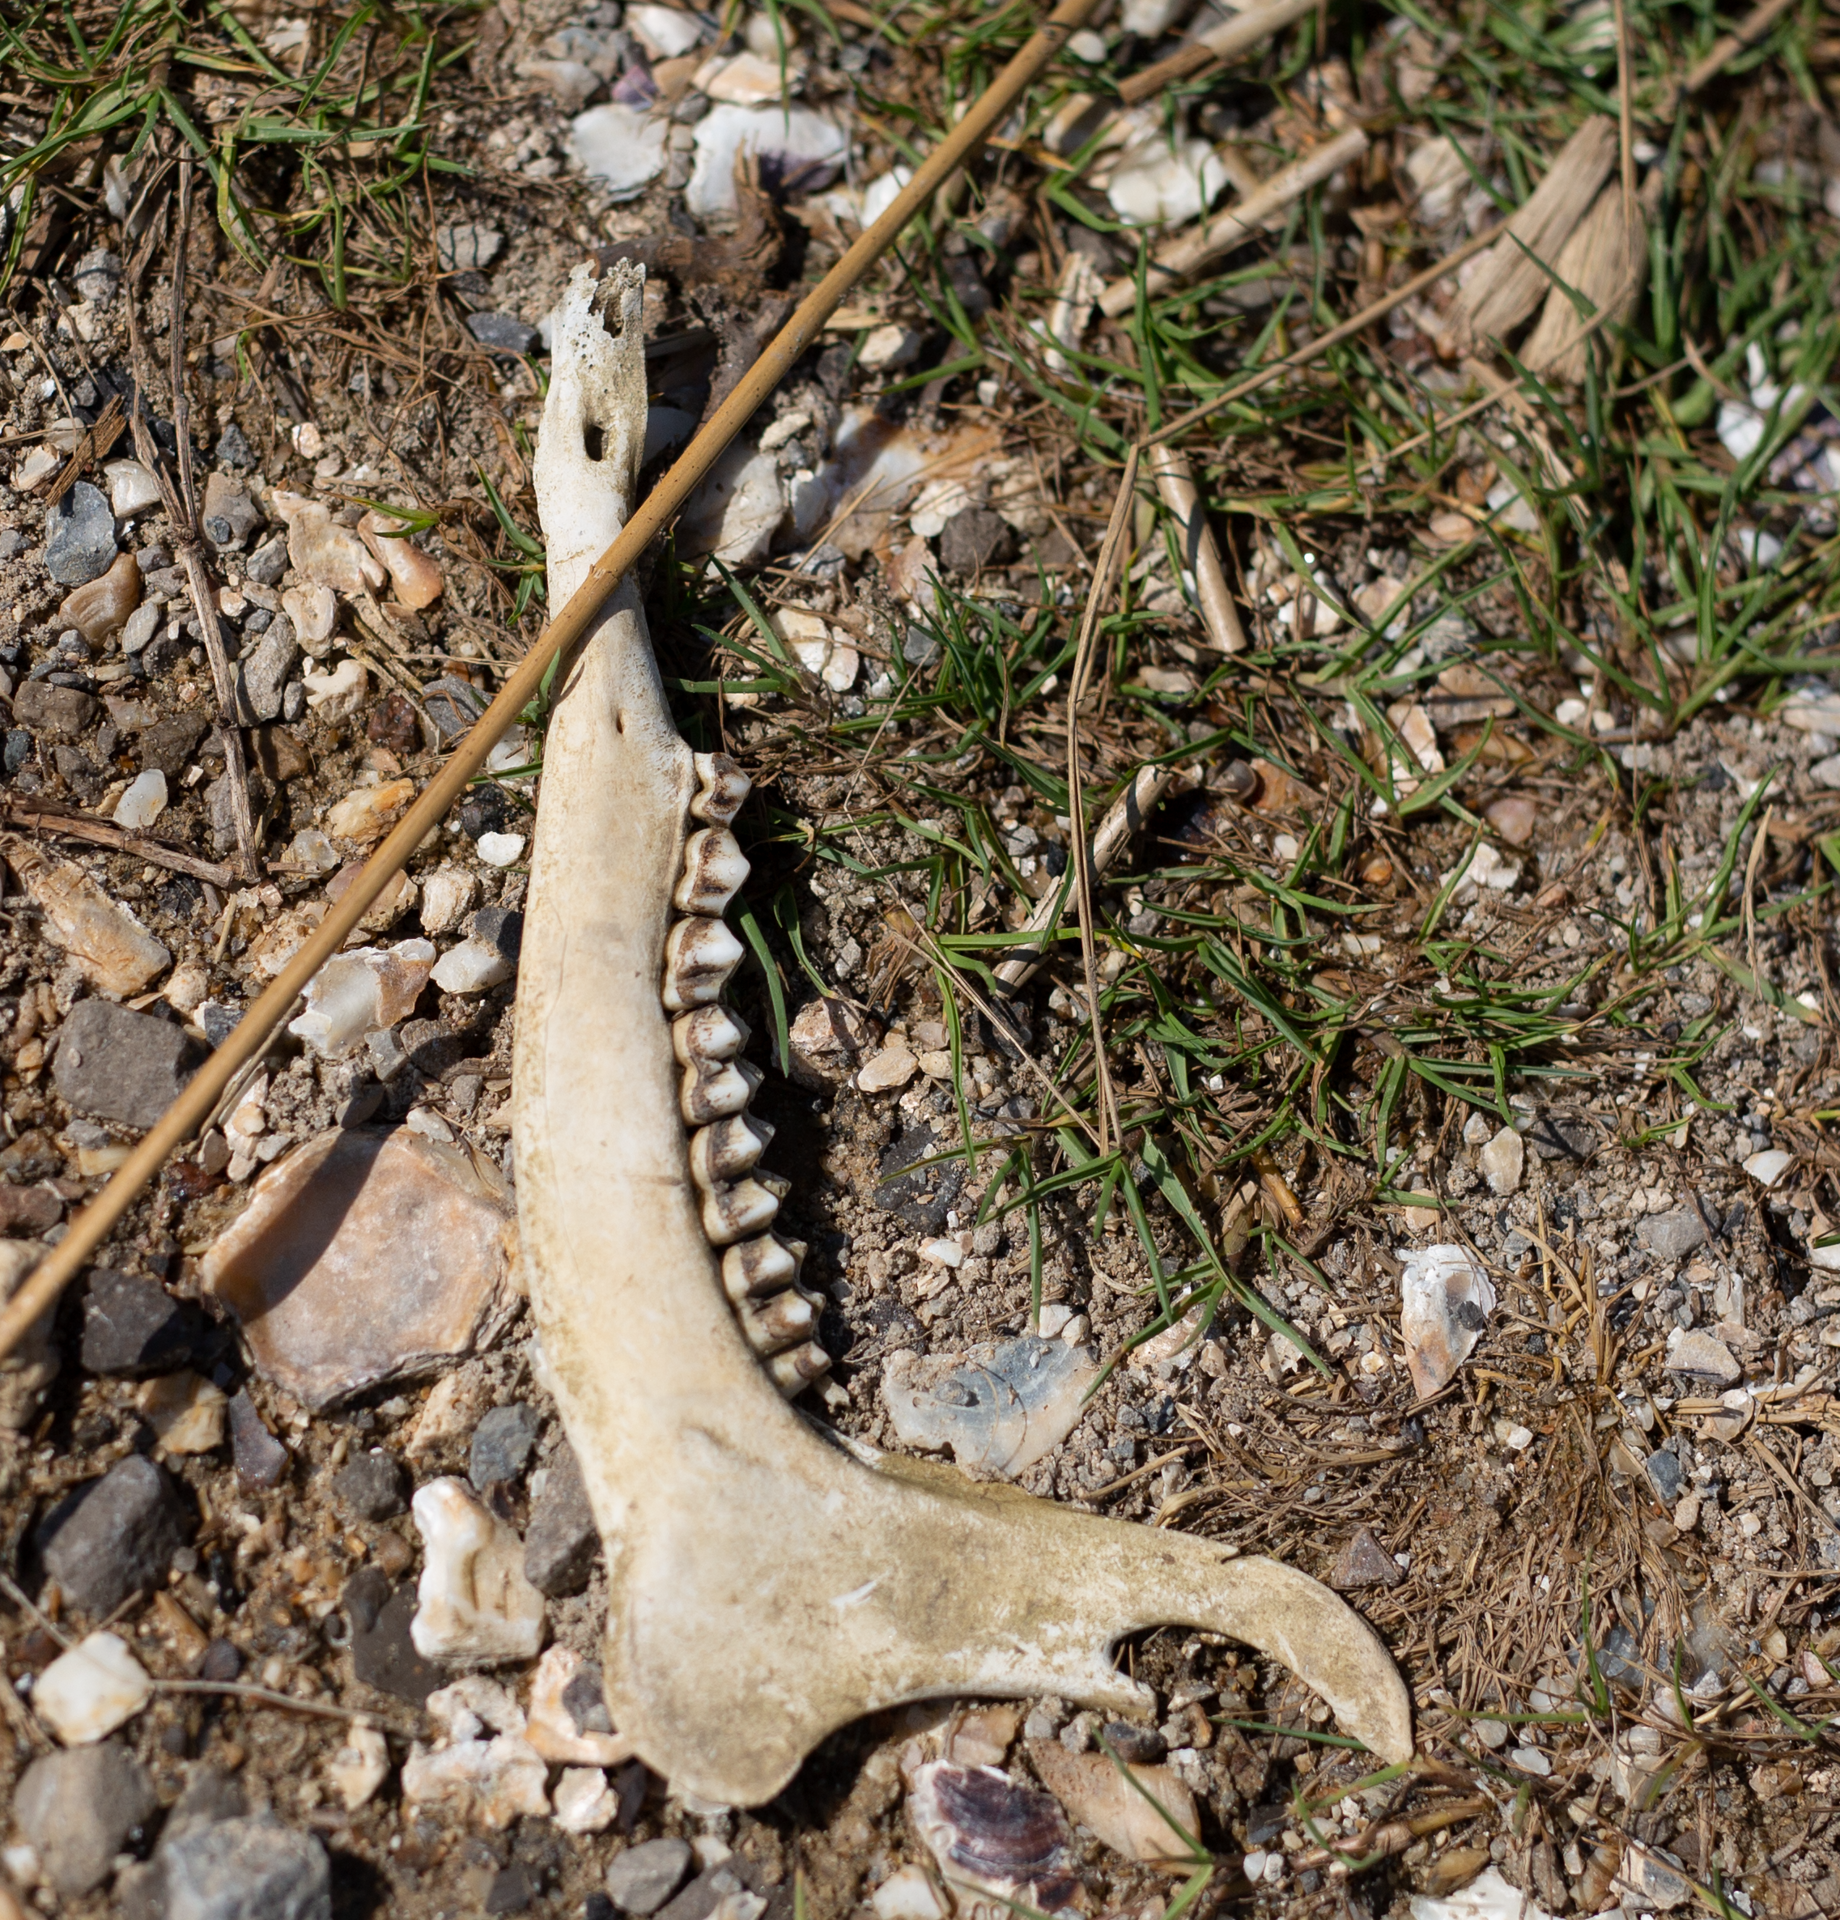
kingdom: Animalia
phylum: Chordata
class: Mammalia
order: Artiodactyla
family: Cervidae
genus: Odocoileus
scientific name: Odocoileus virginianus
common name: White-tailed deer
